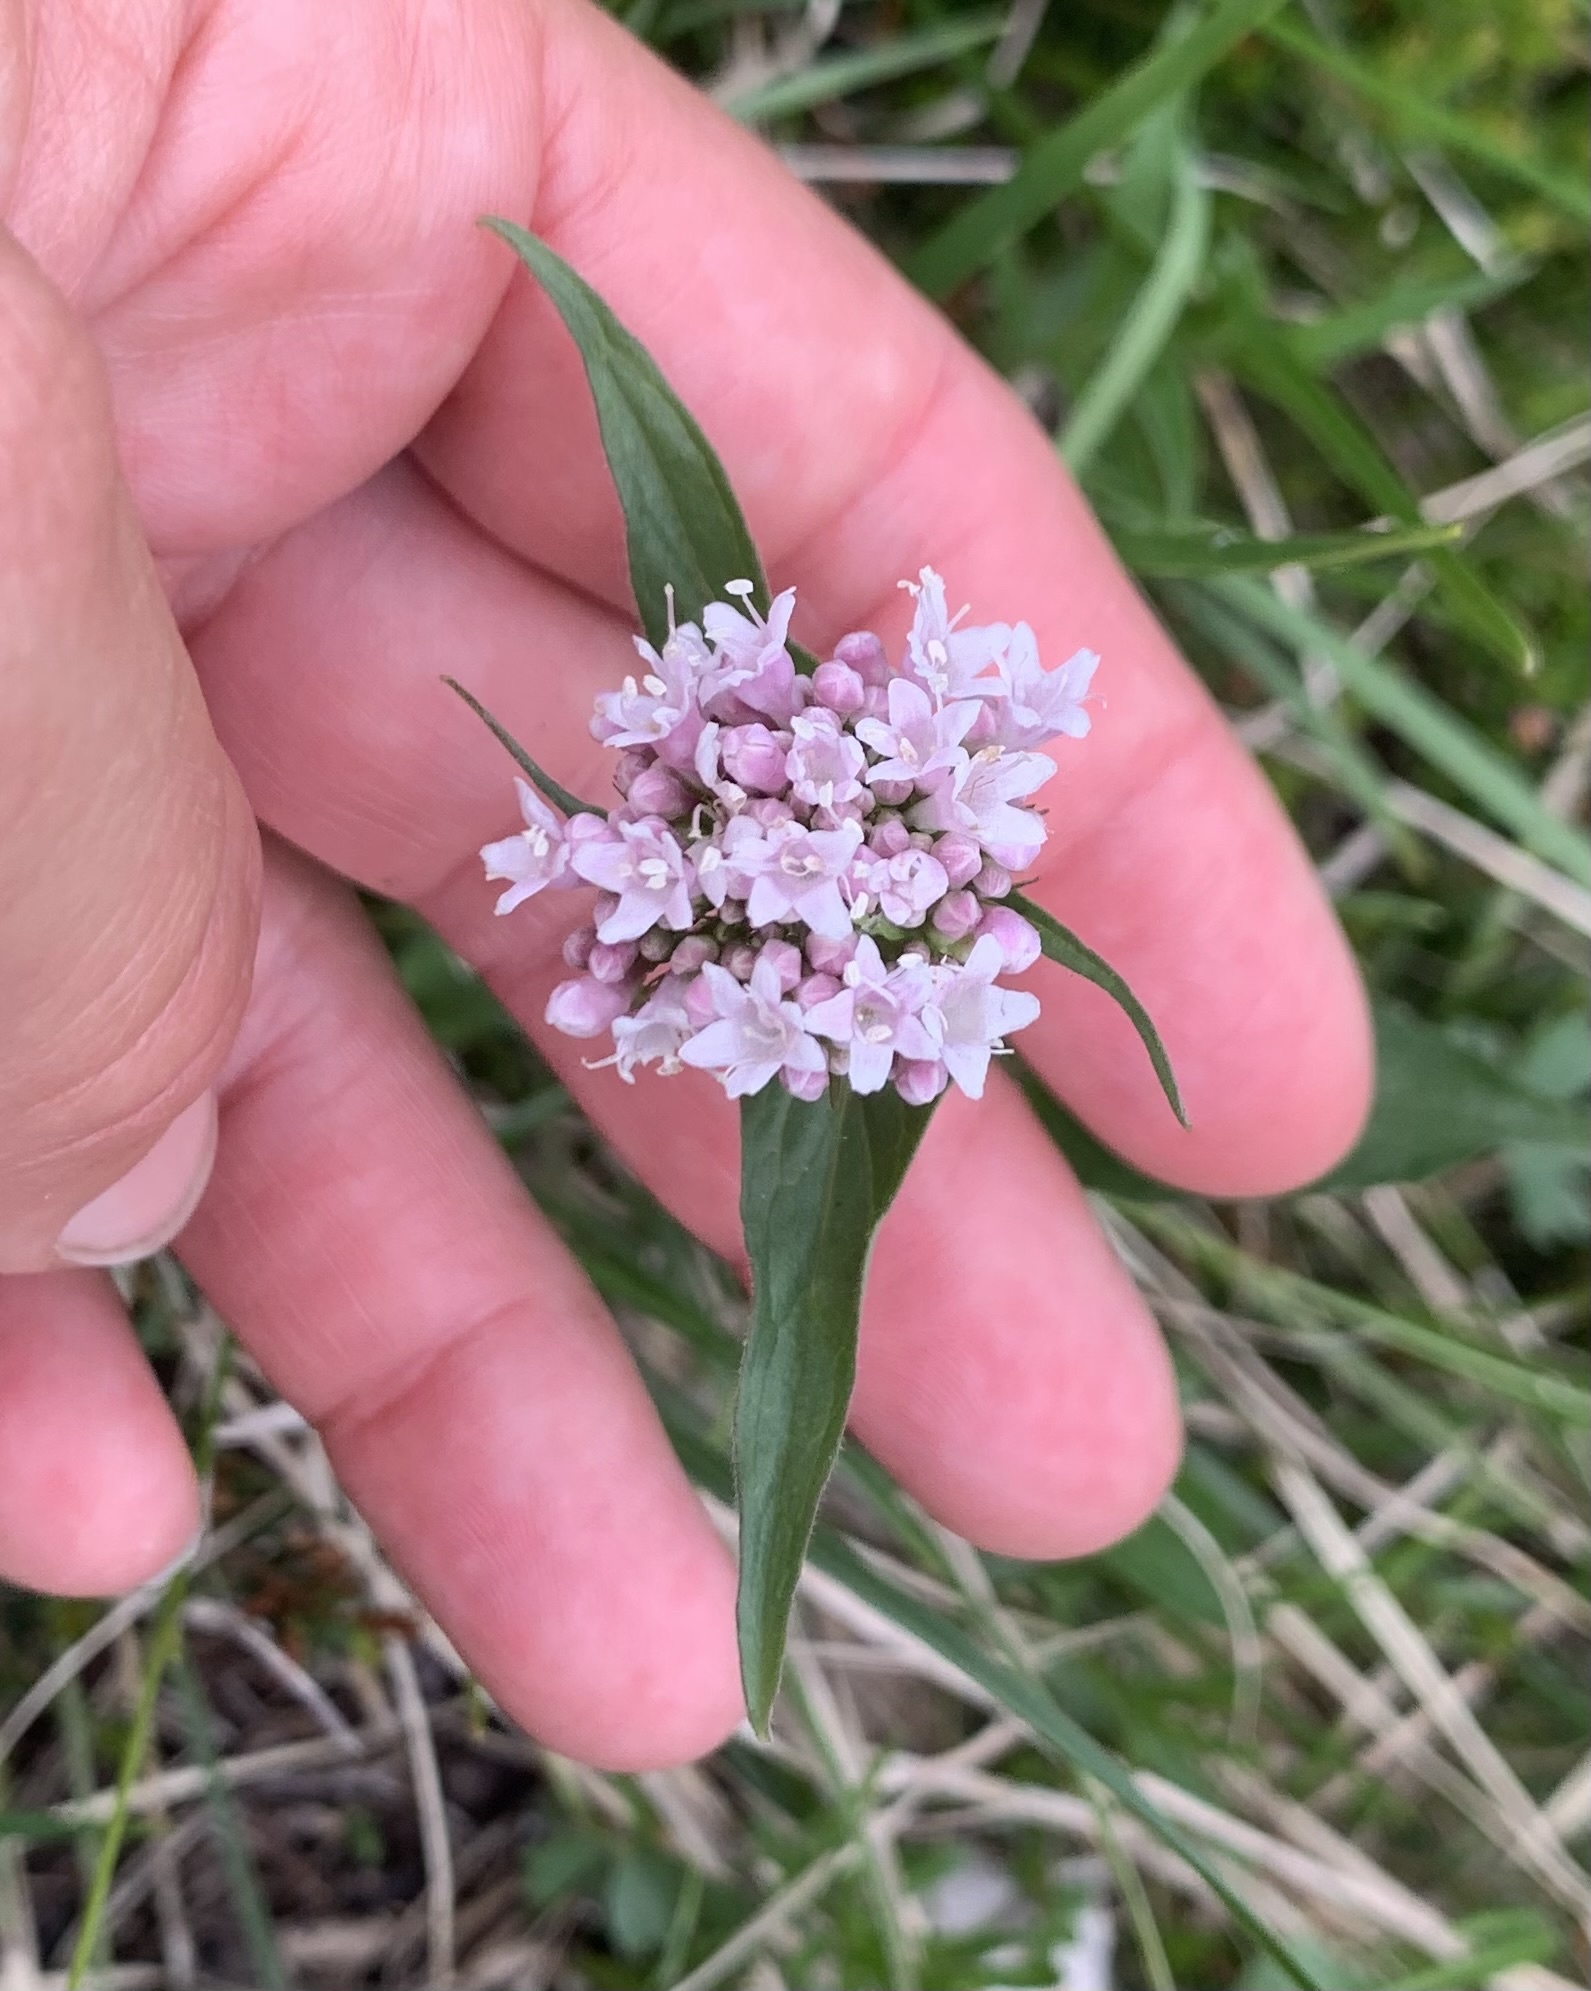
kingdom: Plantae
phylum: Tracheophyta
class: Magnoliopsida
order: Dipsacales
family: Caprifoliaceae
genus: Valeriana
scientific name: Valeriana montana
